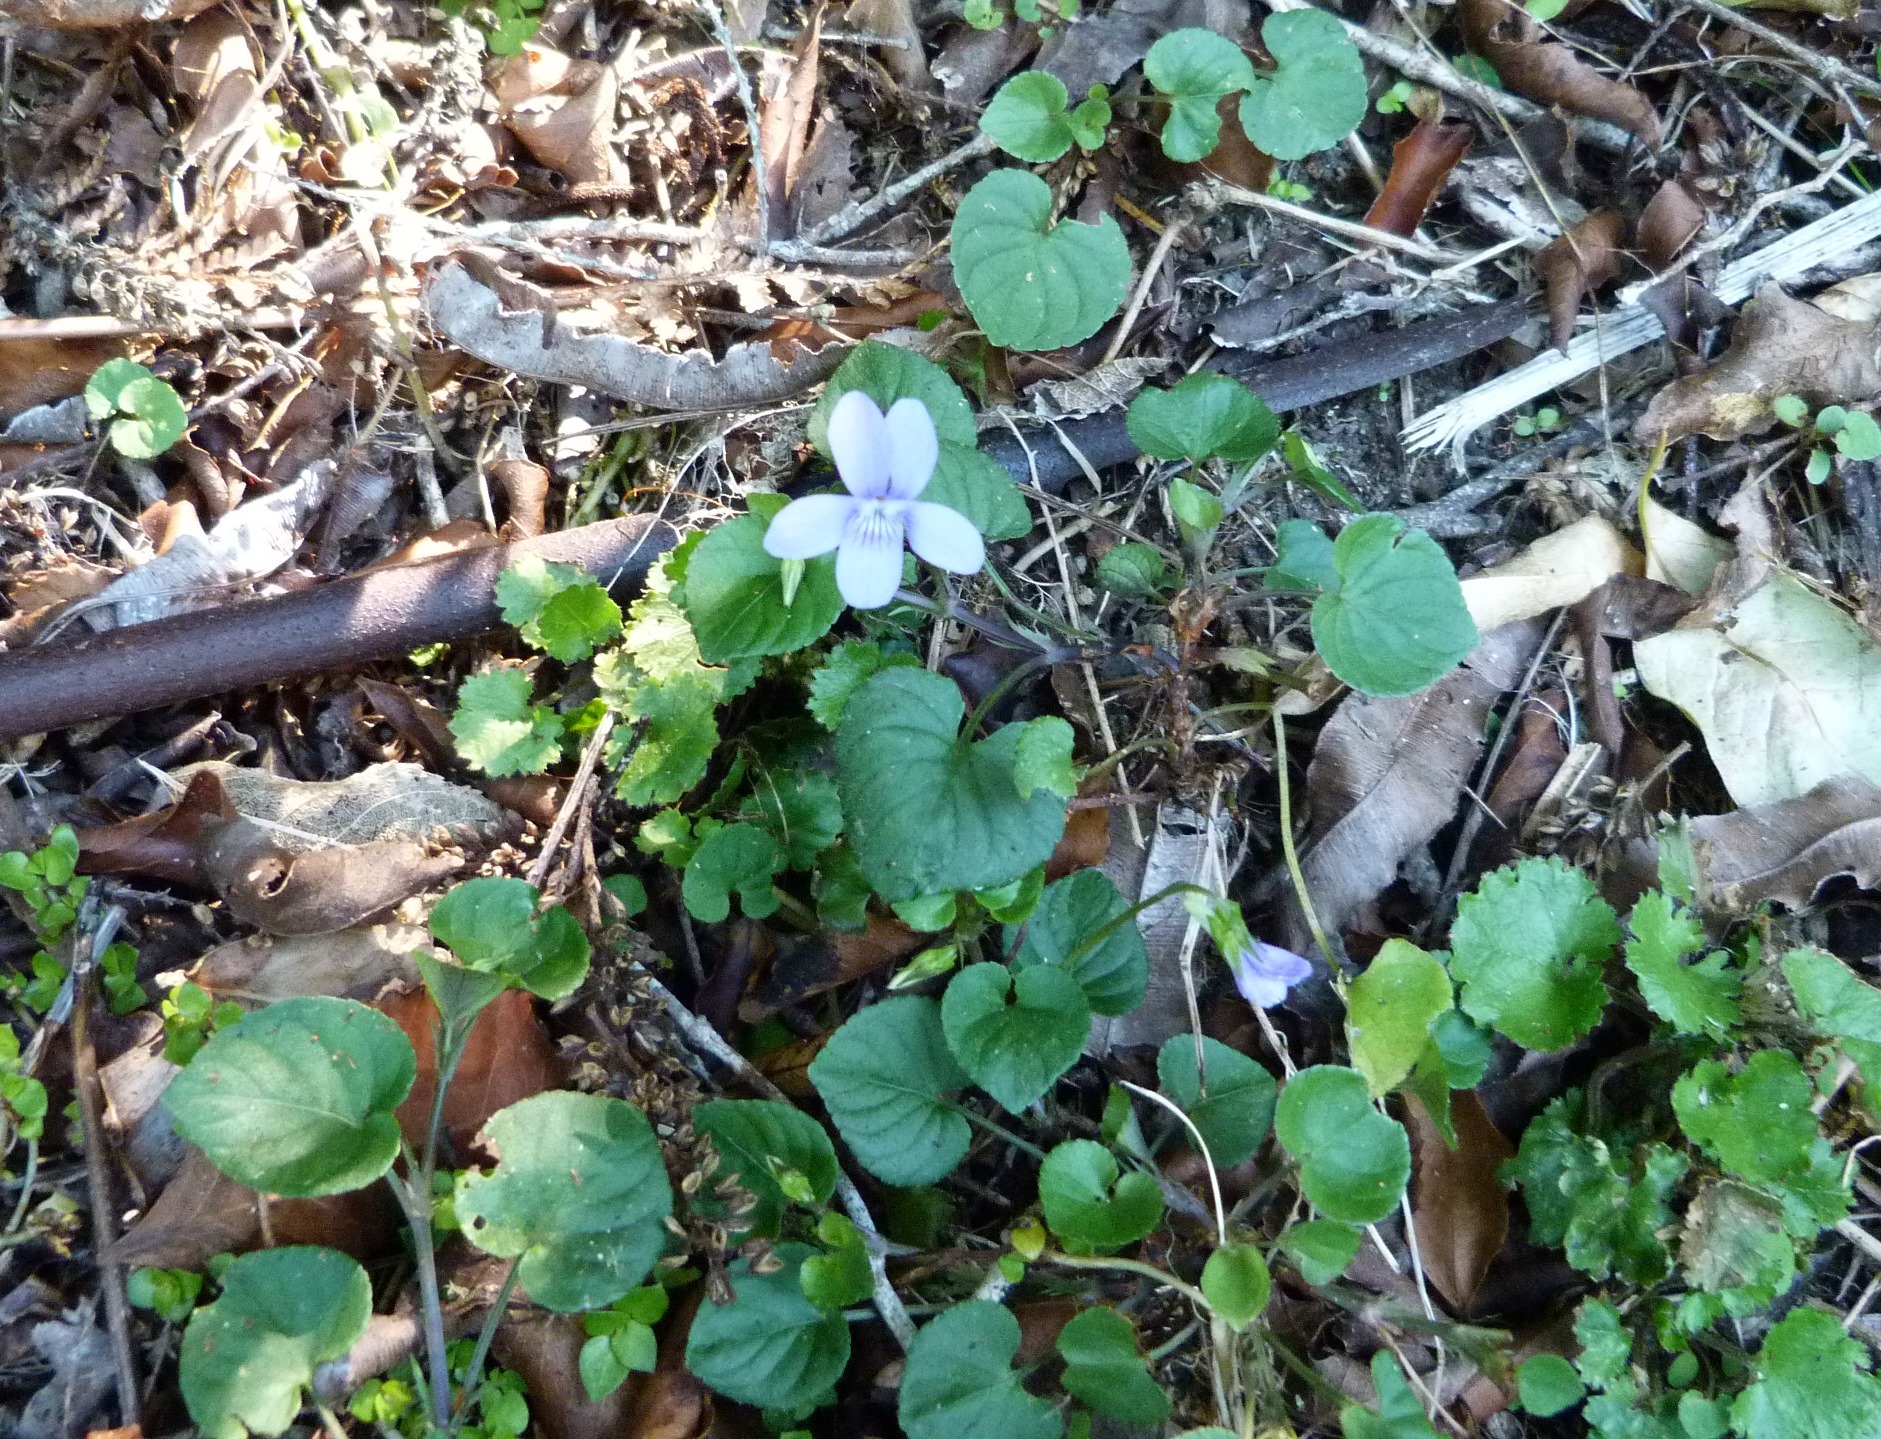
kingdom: Plantae
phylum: Tracheophyta
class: Magnoliopsida
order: Malpighiales
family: Violaceae
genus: Viola
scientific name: Viola odorata
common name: Sweet violet
